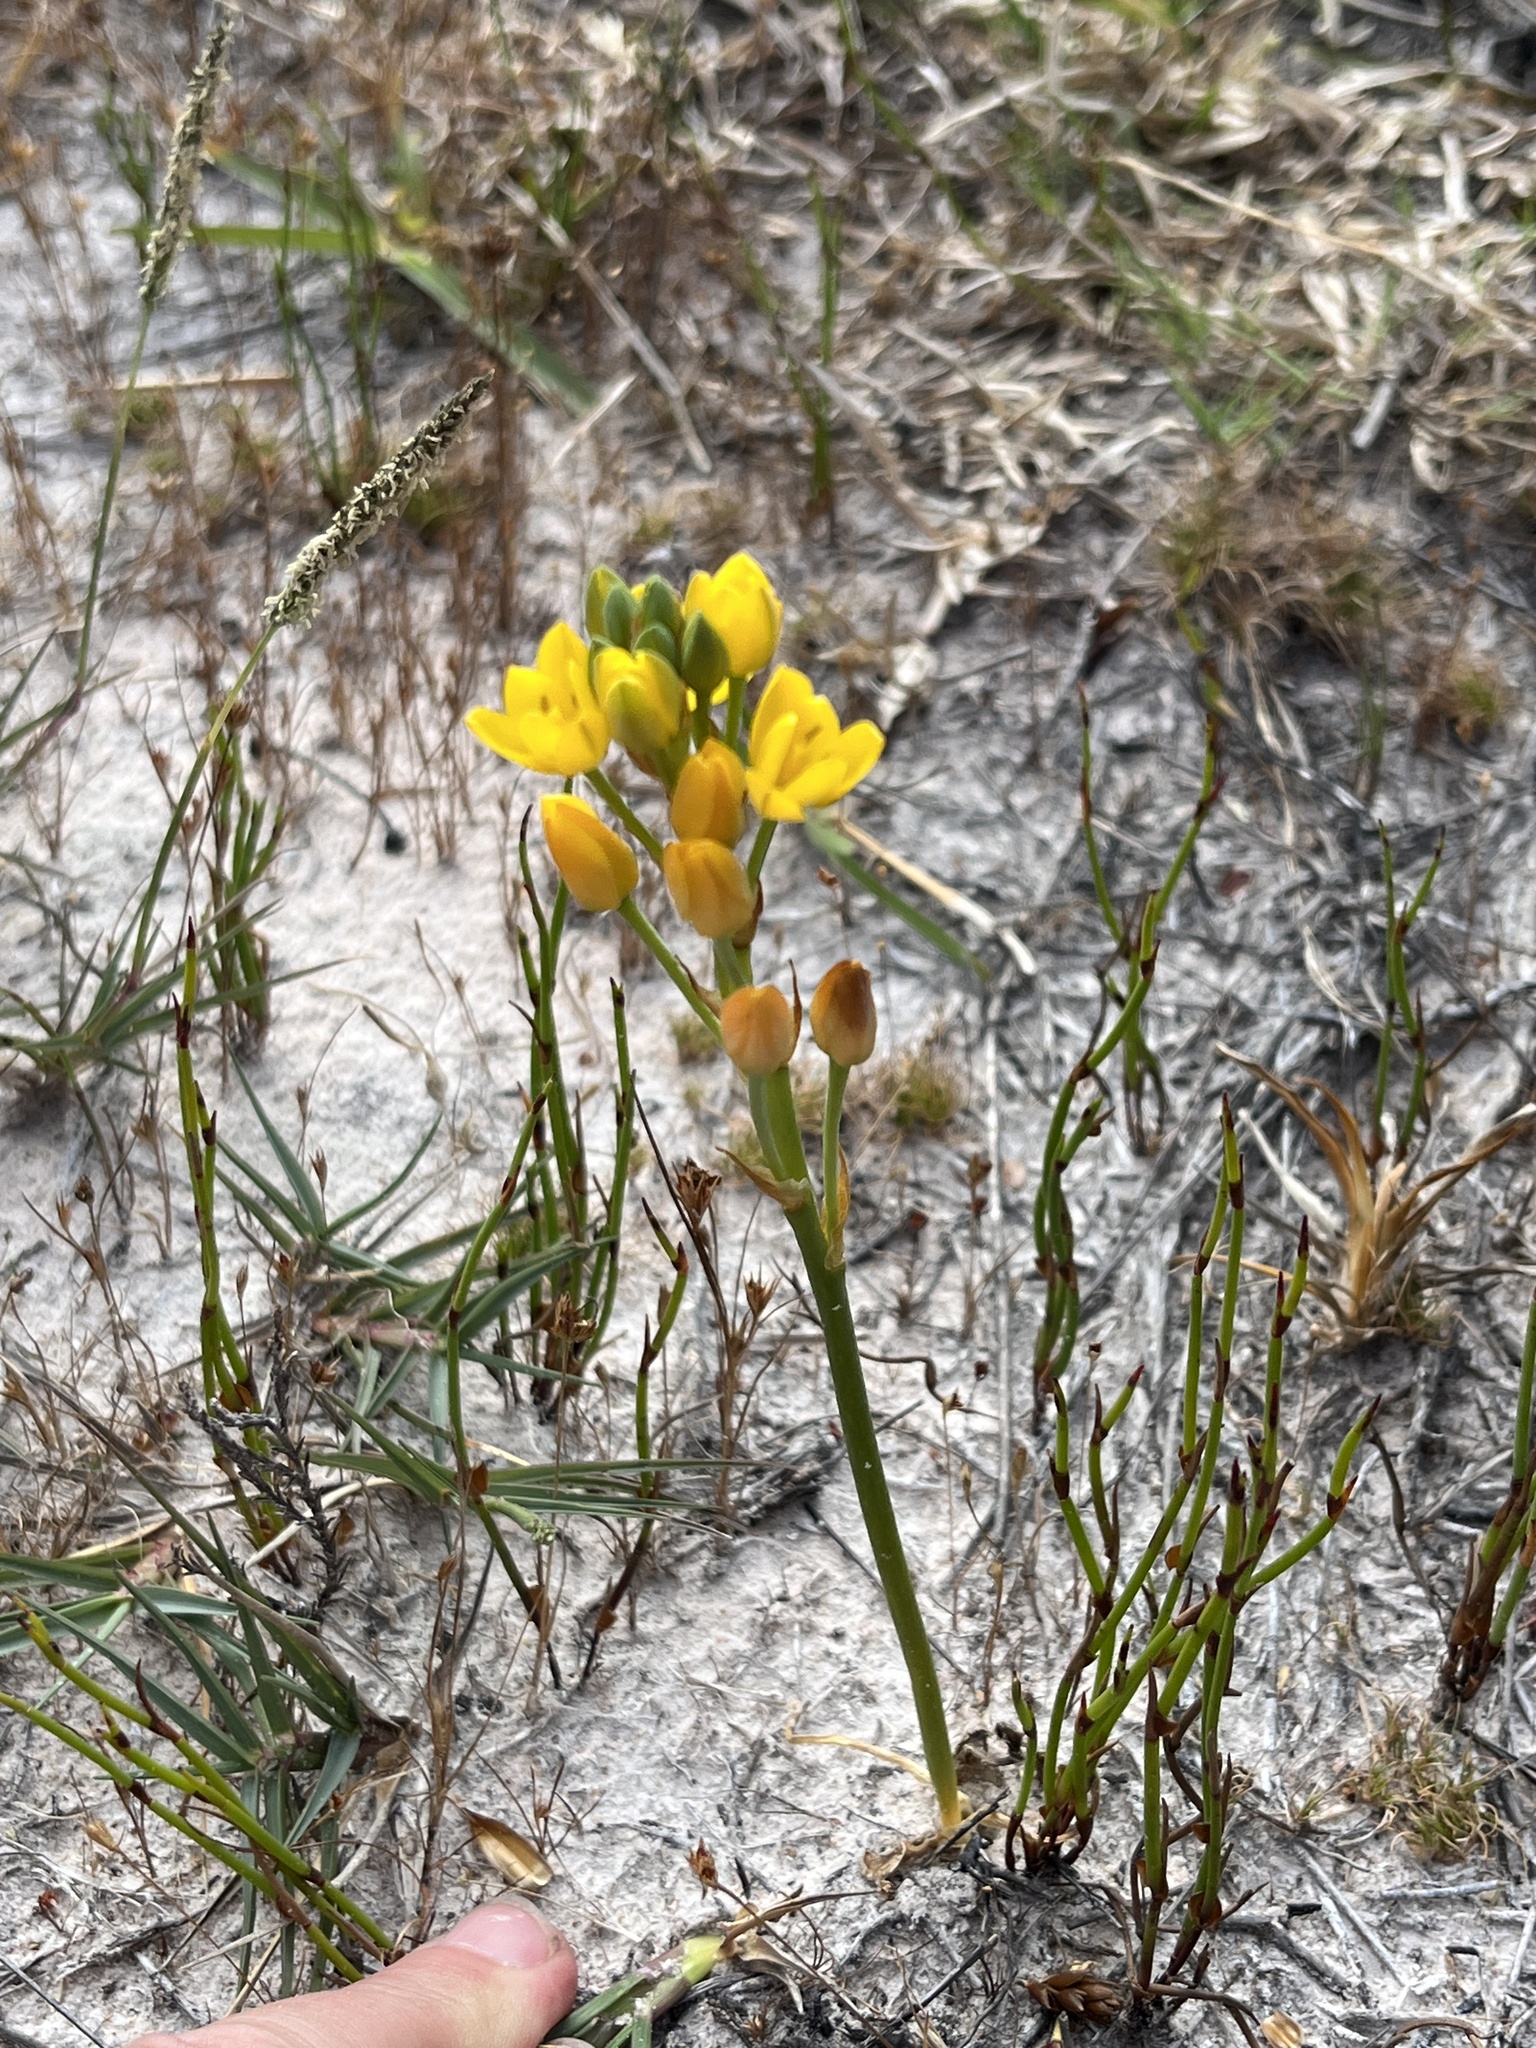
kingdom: Plantae
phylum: Tracheophyta
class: Liliopsida
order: Asparagales
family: Asparagaceae
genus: Ornithogalum
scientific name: Ornithogalum dubium
